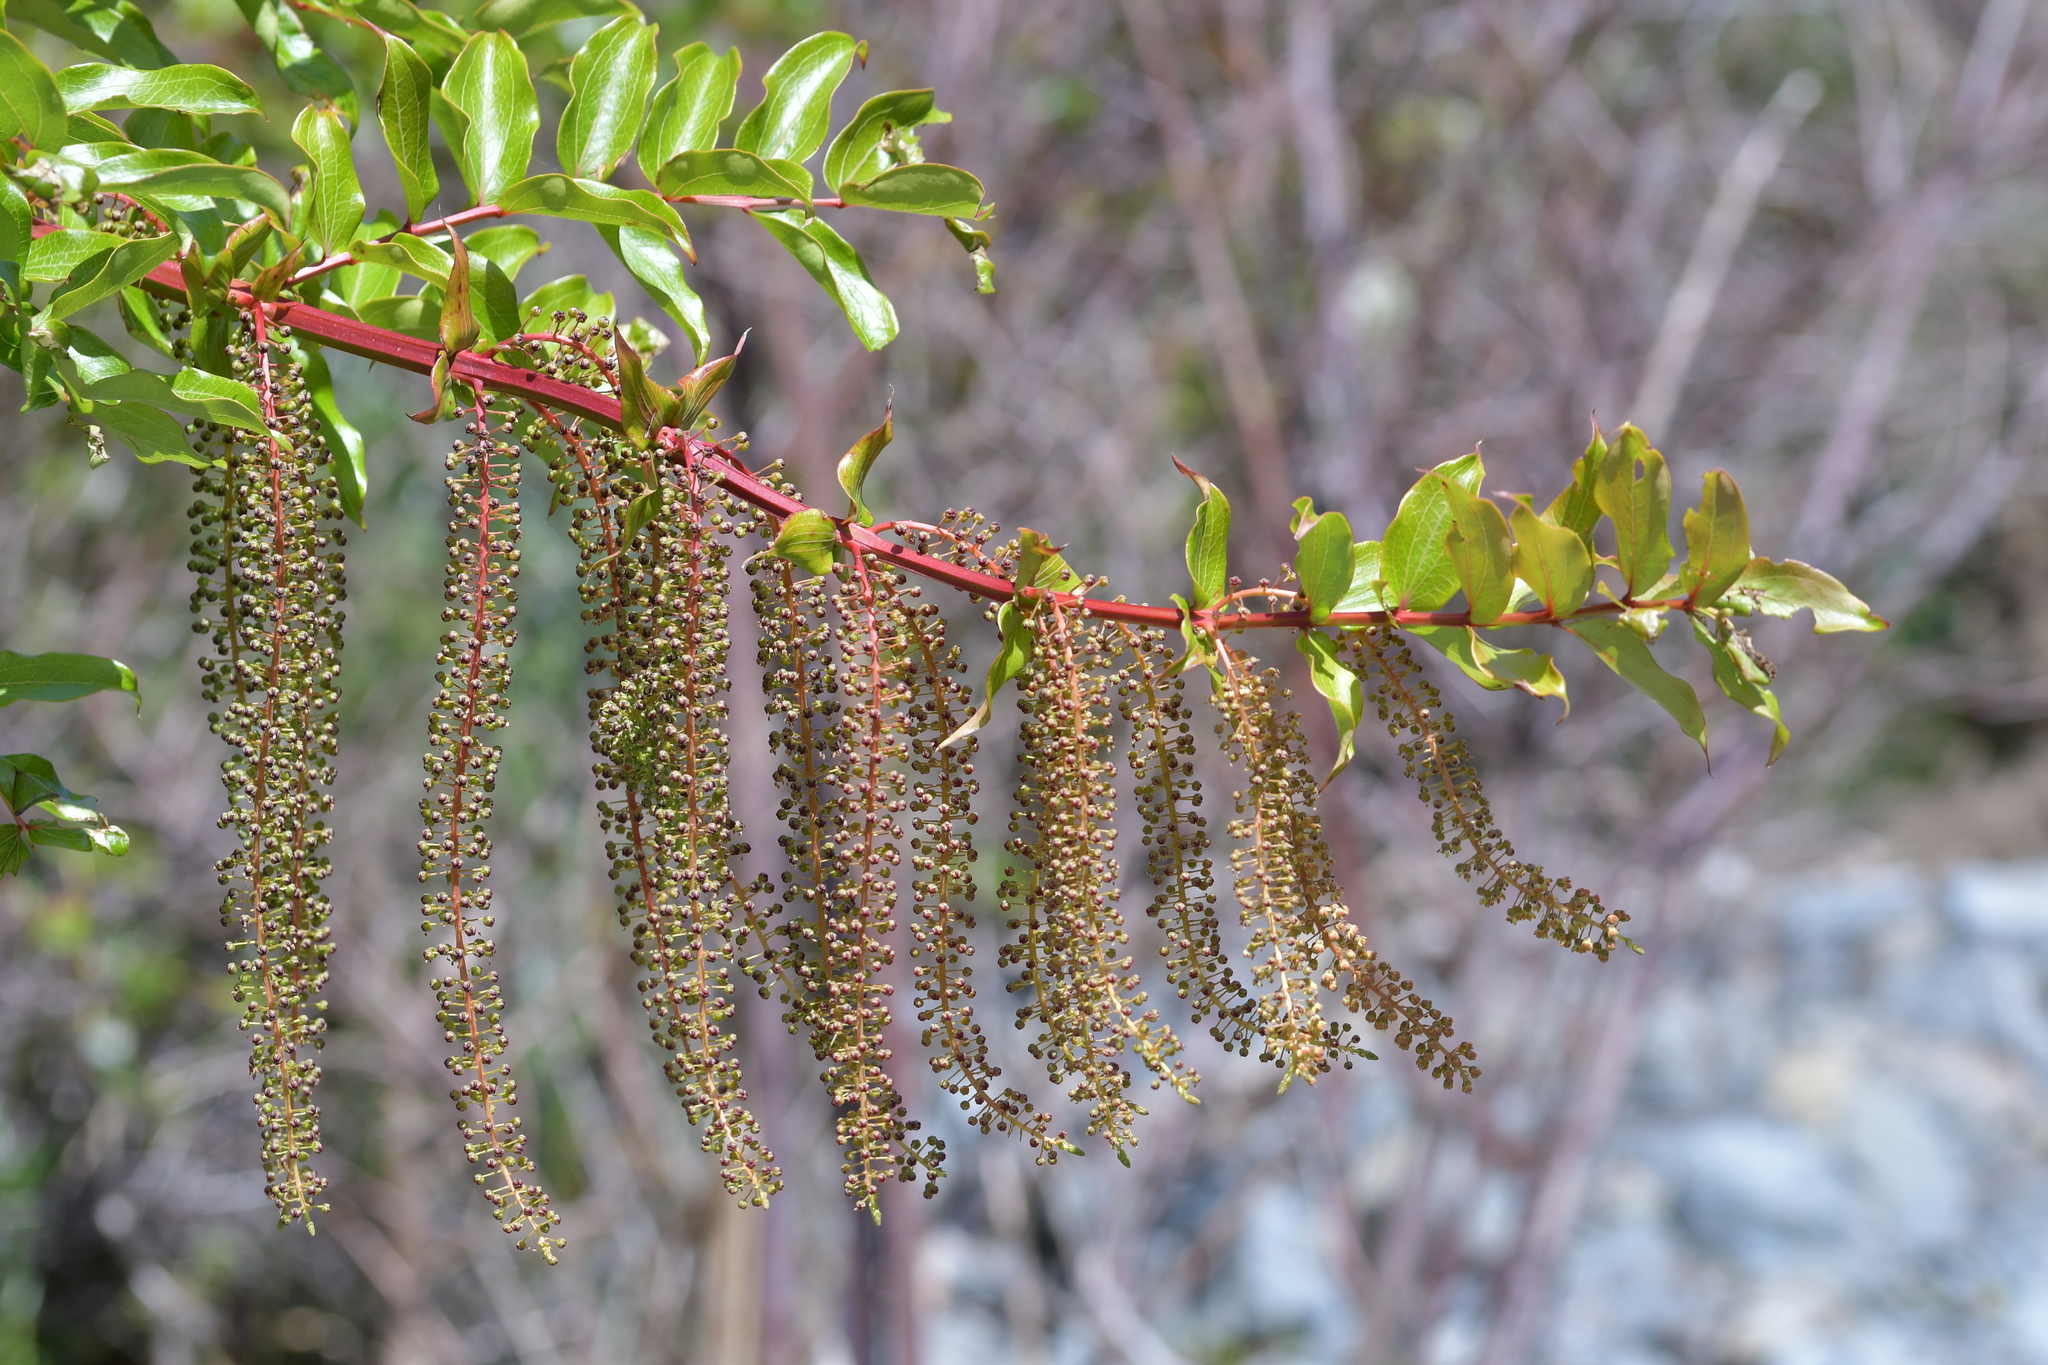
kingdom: Plantae
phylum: Tracheophyta
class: Magnoliopsida
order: Cucurbitales
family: Coriariaceae
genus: Coriaria
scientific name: Coriaria arborea
